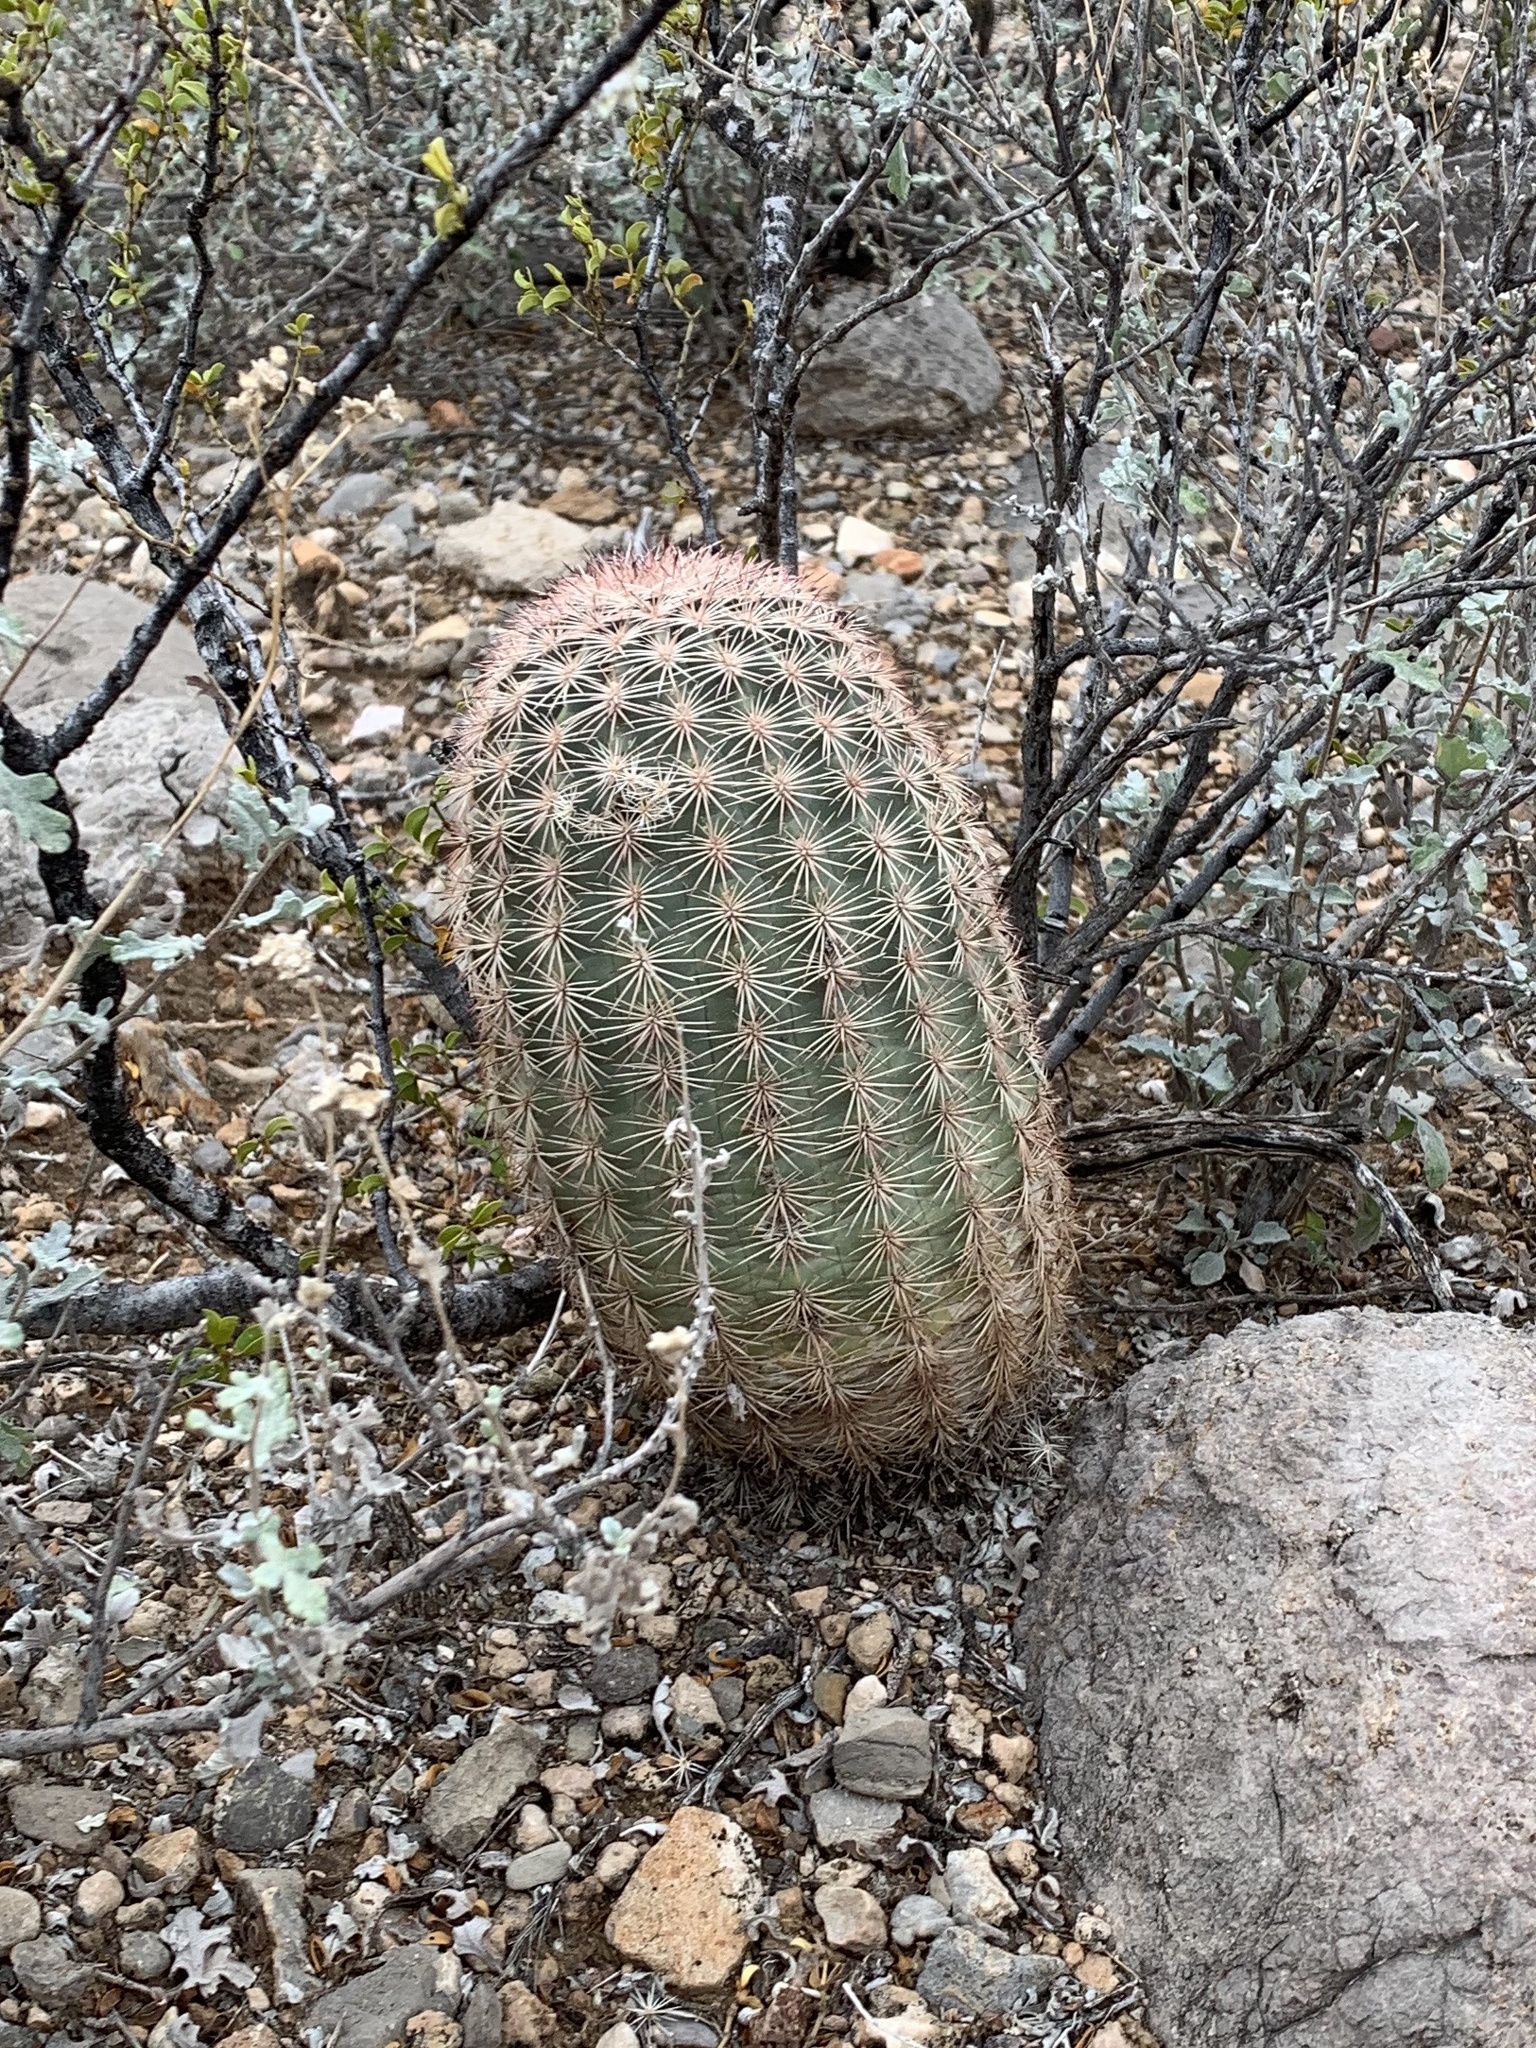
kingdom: Plantae
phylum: Tracheophyta
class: Magnoliopsida
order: Caryophyllales
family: Cactaceae
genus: Echinocereus
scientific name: Echinocereus dasyacanthus
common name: Spiny hedgehog cactus
